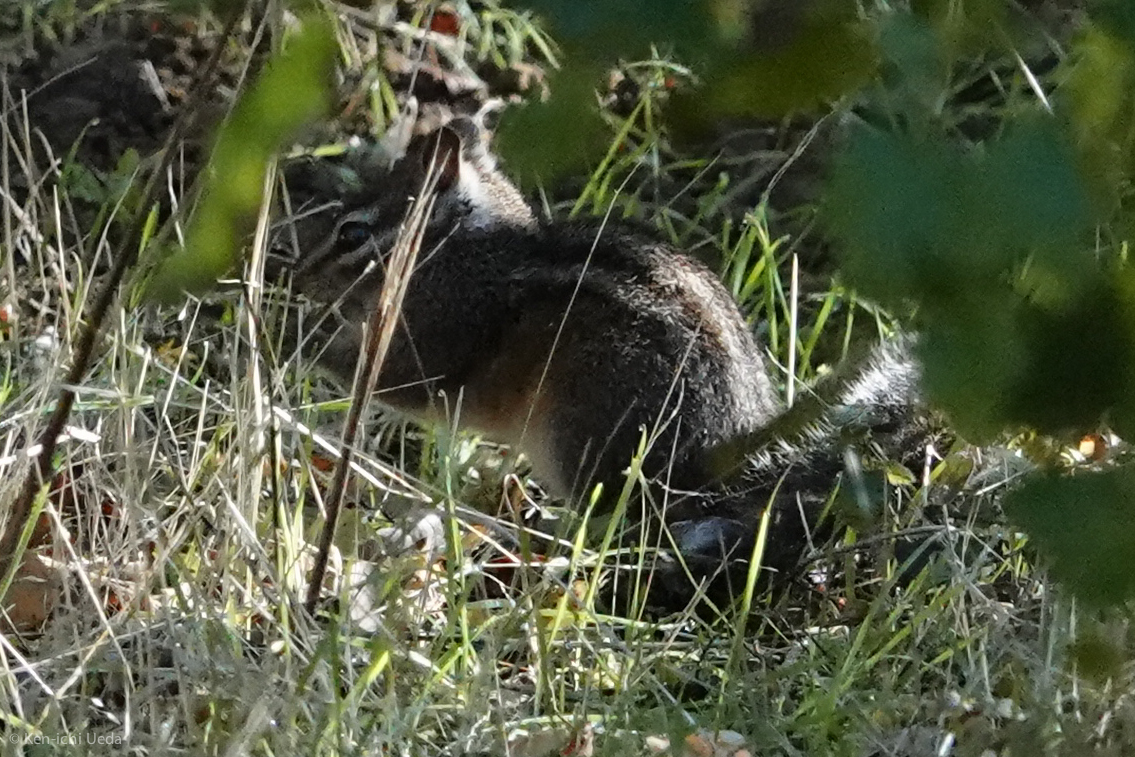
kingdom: Animalia
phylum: Chordata
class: Mammalia
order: Rodentia
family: Sciuridae
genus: Tamias
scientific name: Tamias merriami
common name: Merriam's chipmunk
